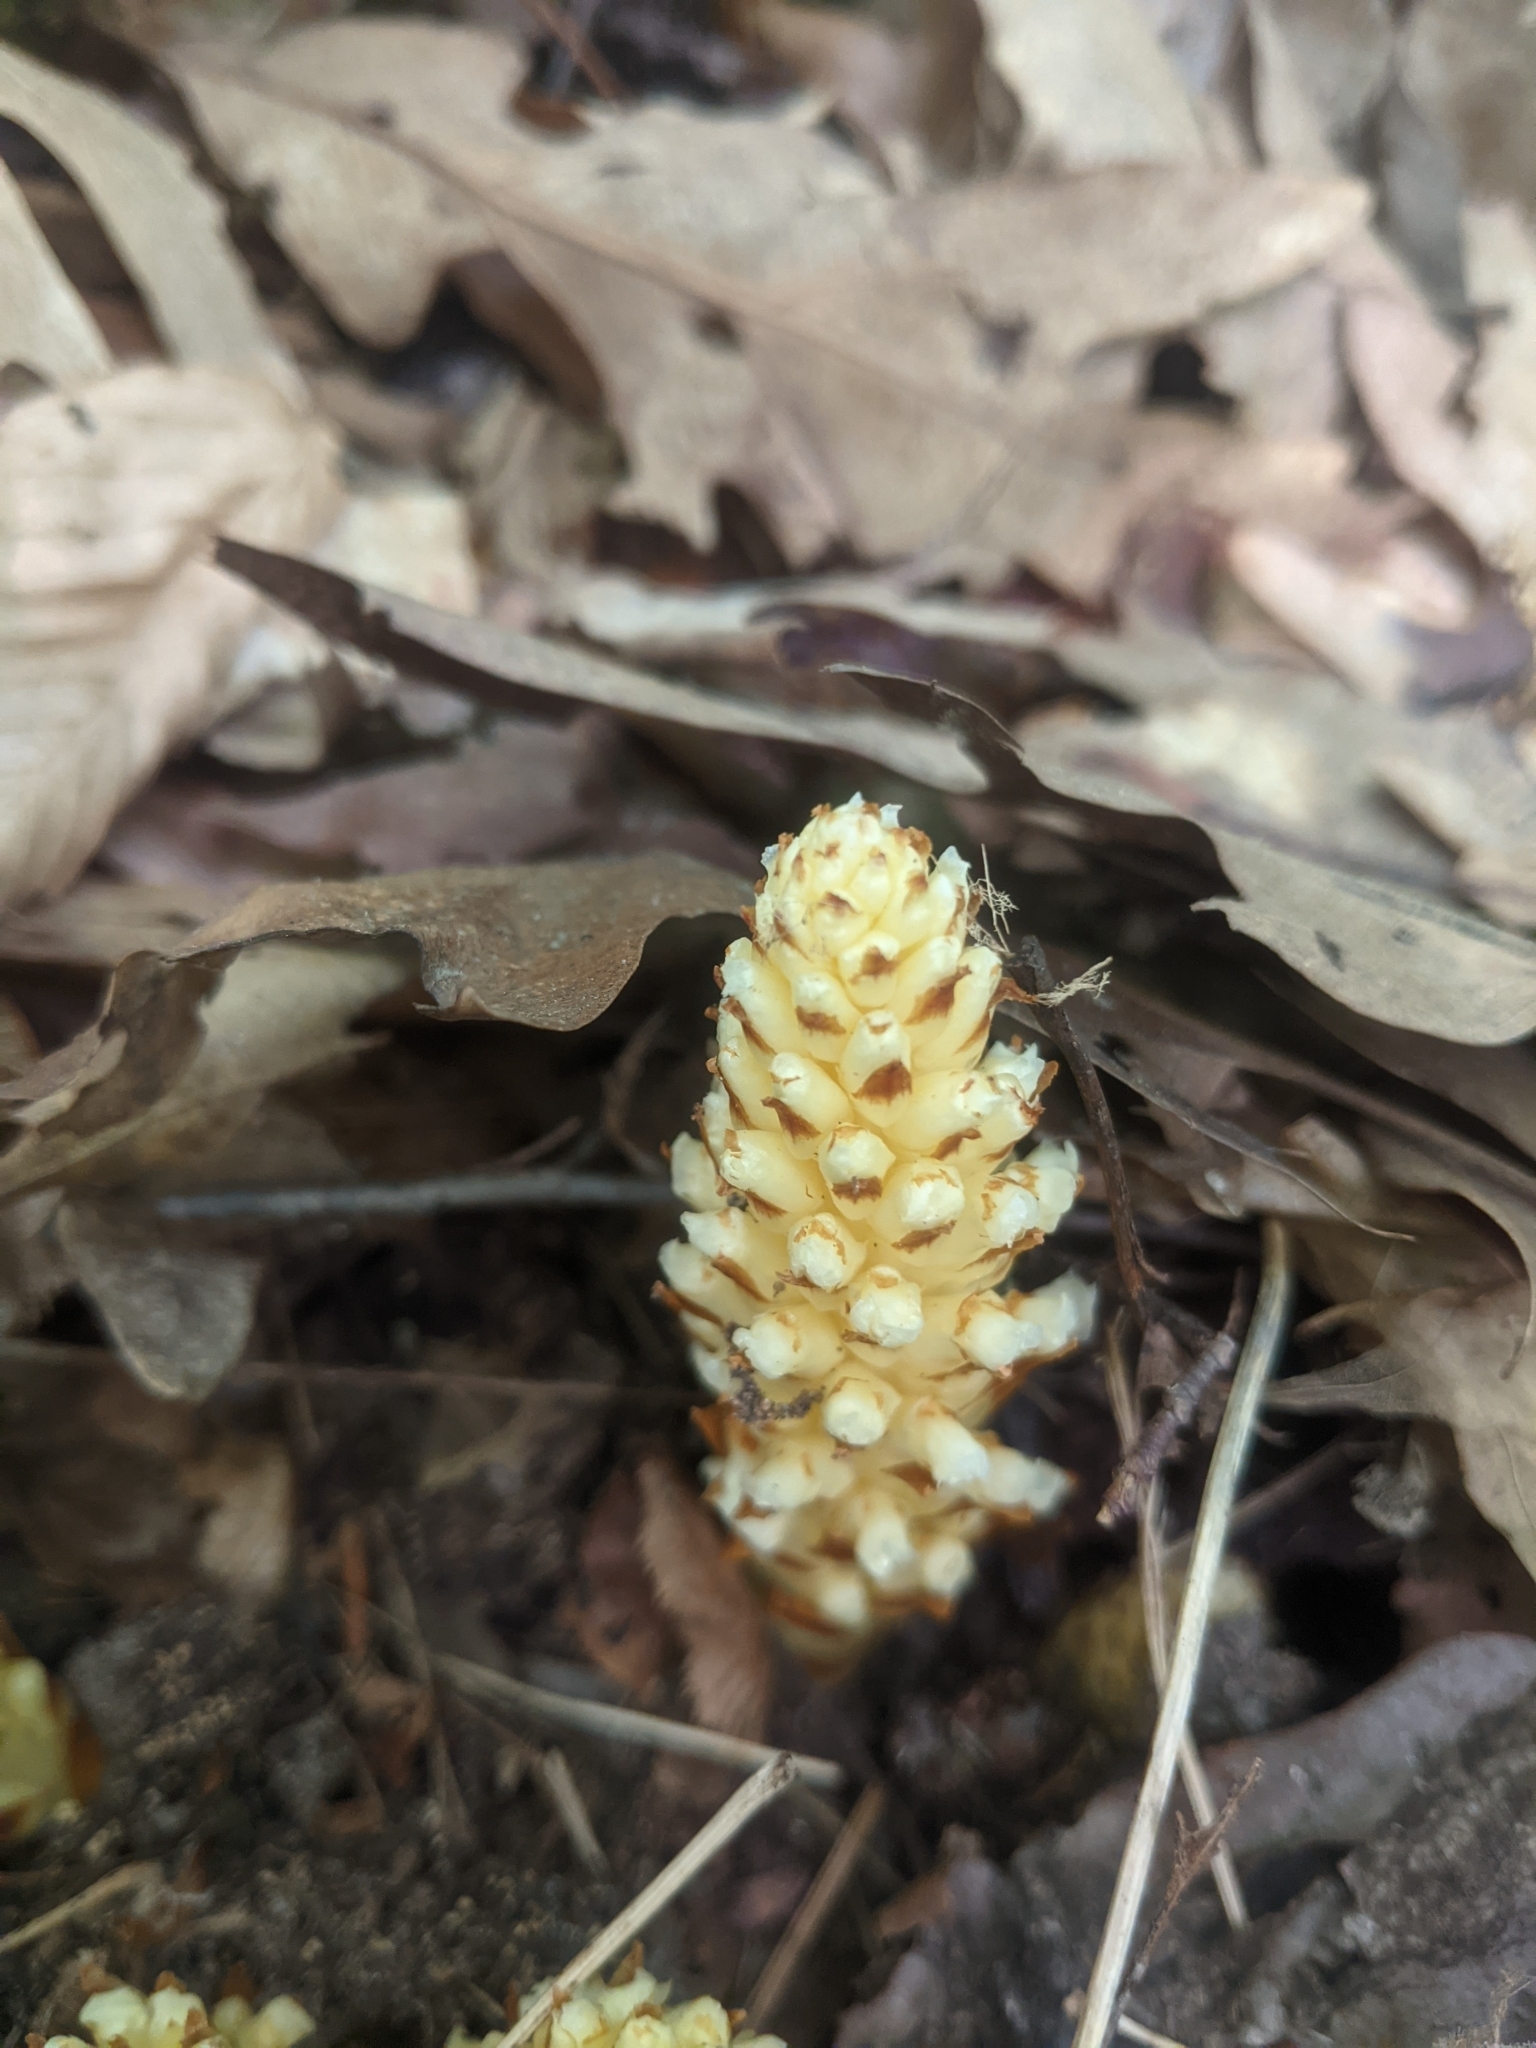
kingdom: Plantae
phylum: Tracheophyta
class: Magnoliopsida
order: Lamiales
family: Orobanchaceae
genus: Conopholis
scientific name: Conopholis americana
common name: American cancer-root
